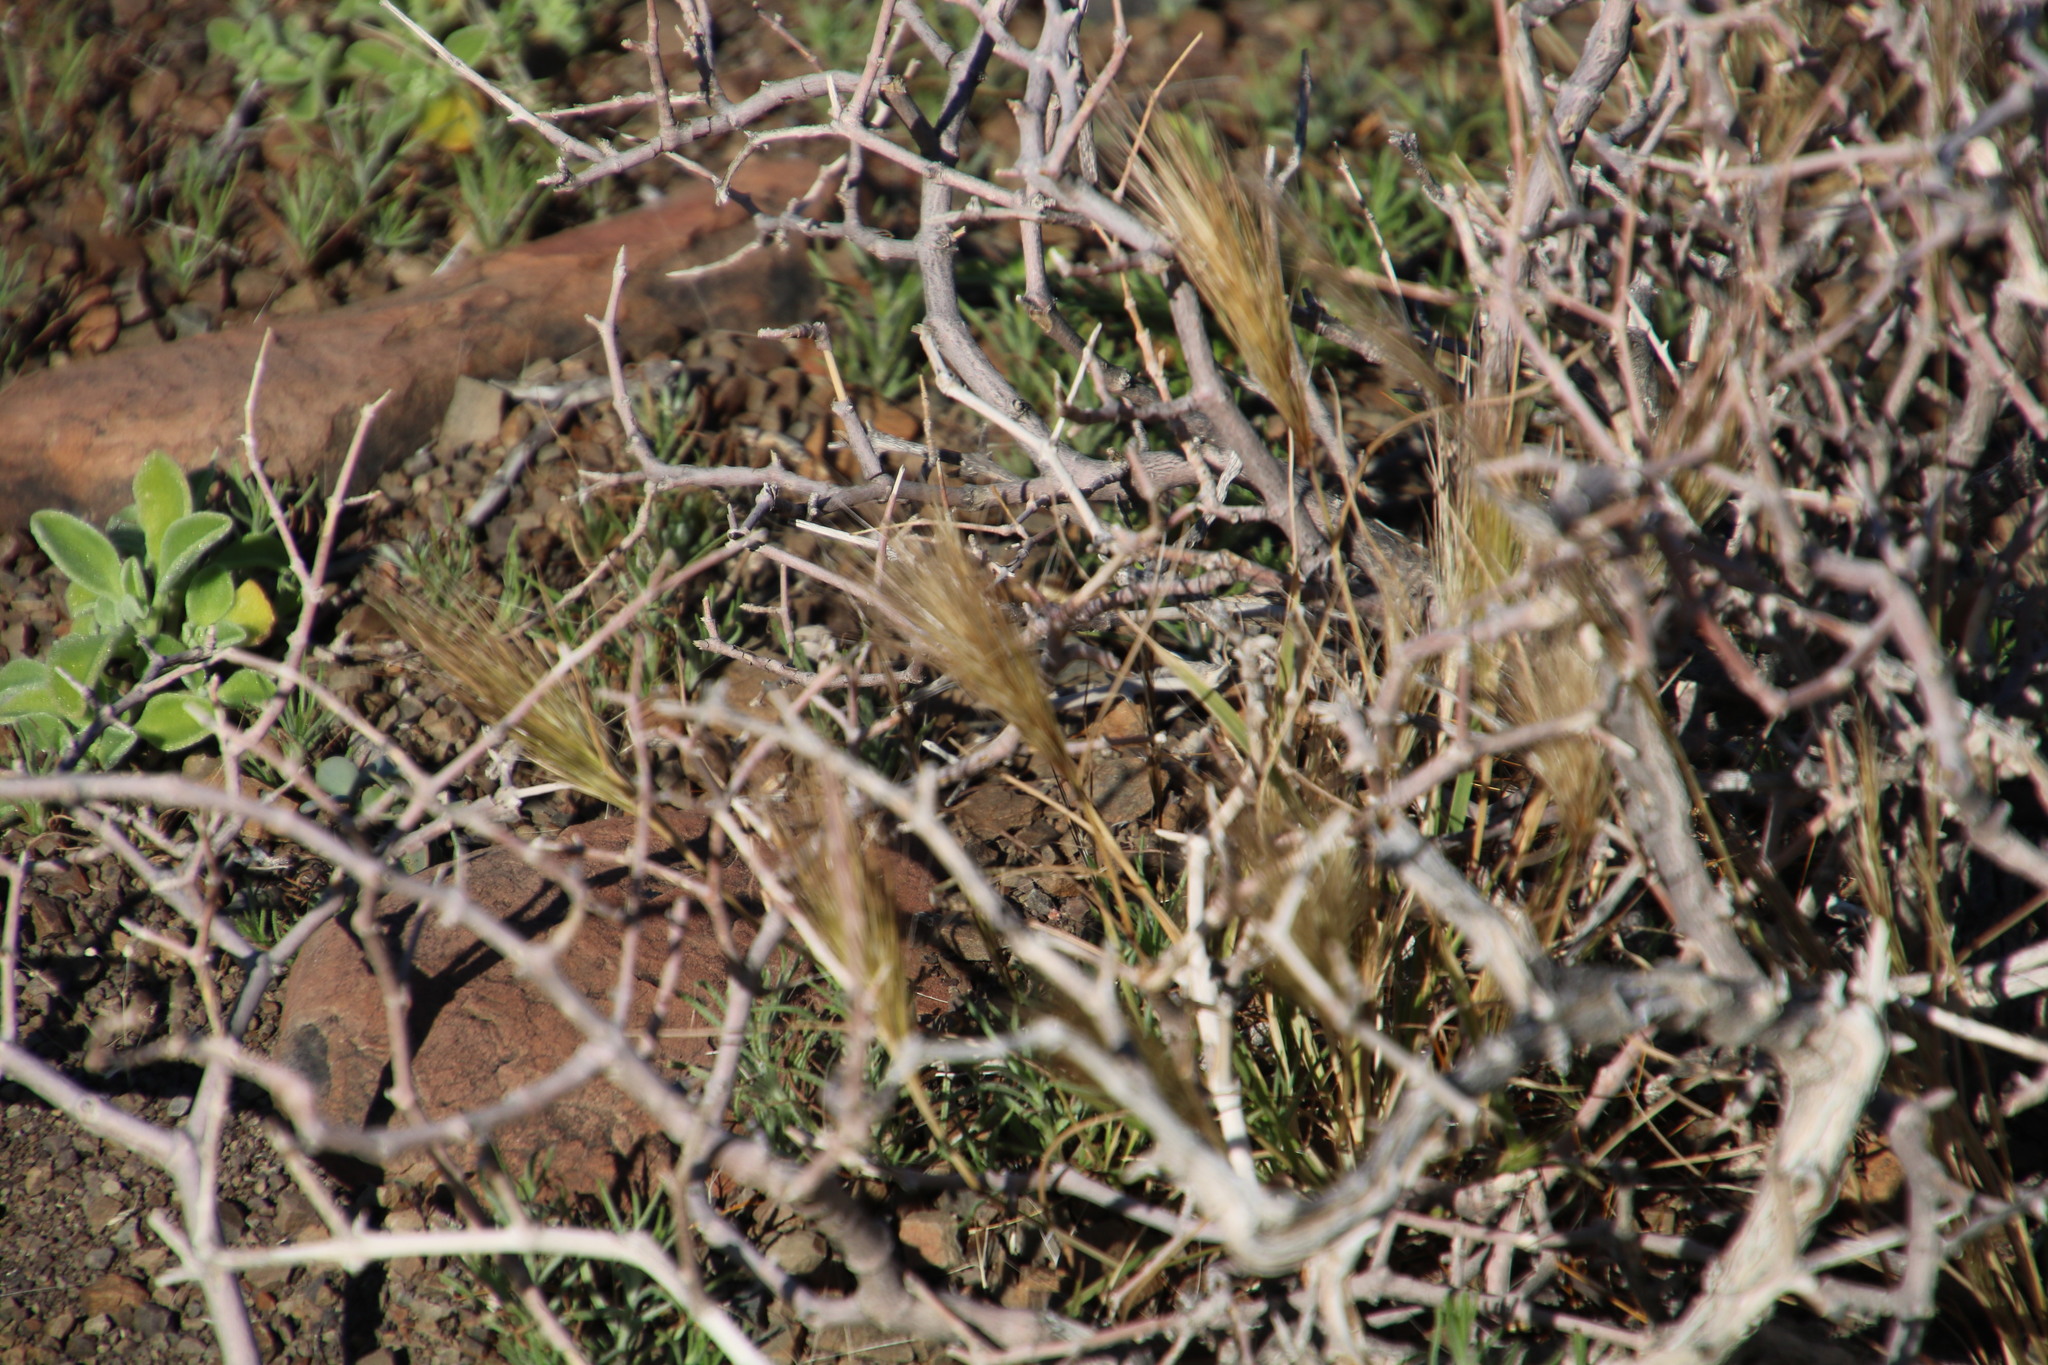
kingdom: Plantae
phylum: Tracheophyta
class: Liliopsida
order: Poales
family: Poaceae
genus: Aristida
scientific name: Aristida congesta
